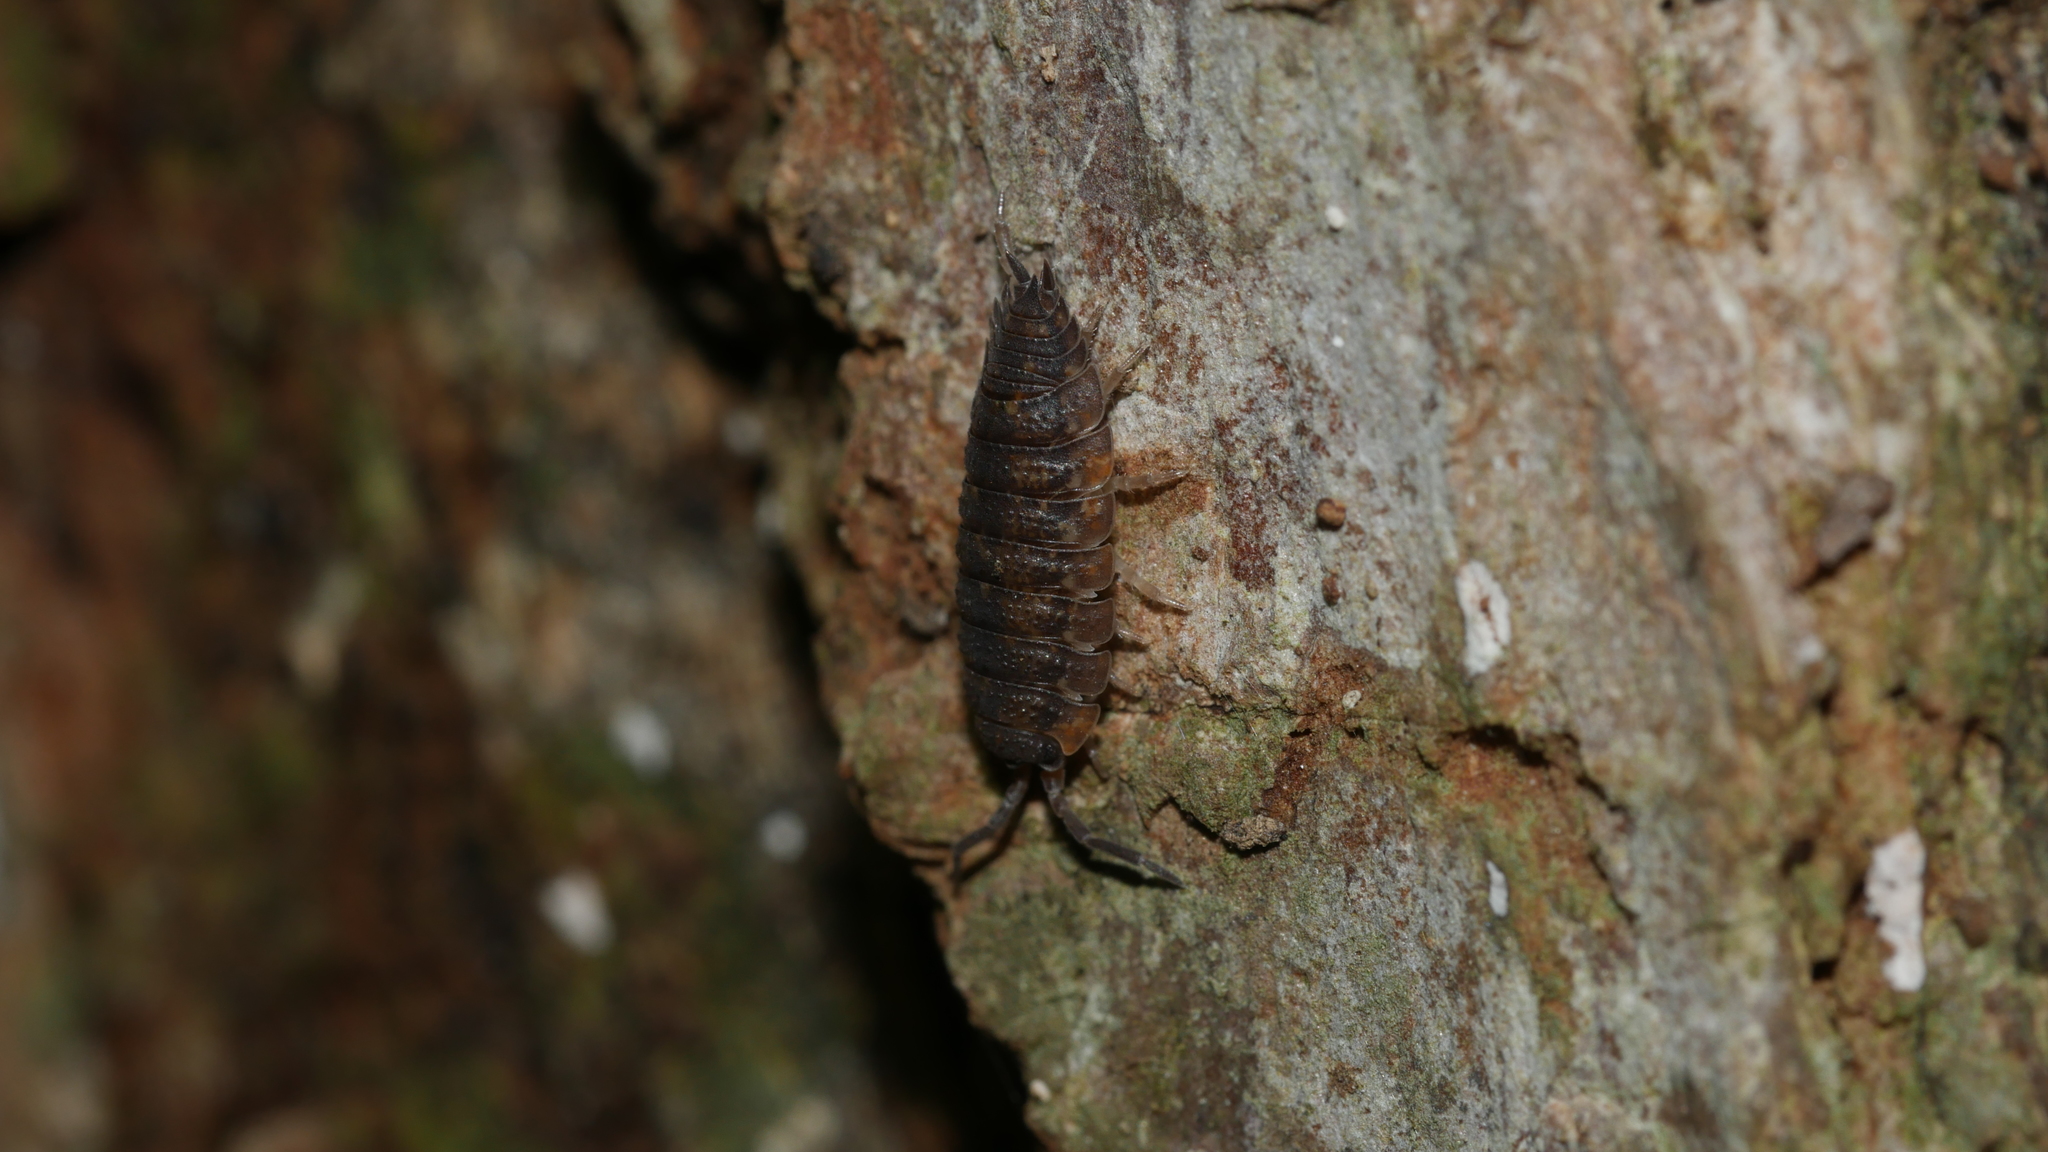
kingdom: Animalia
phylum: Arthropoda
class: Malacostraca
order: Isopoda
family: Porcellionidae
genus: Porcellio
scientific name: Porcellio scaber
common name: Common rough woodlouse
